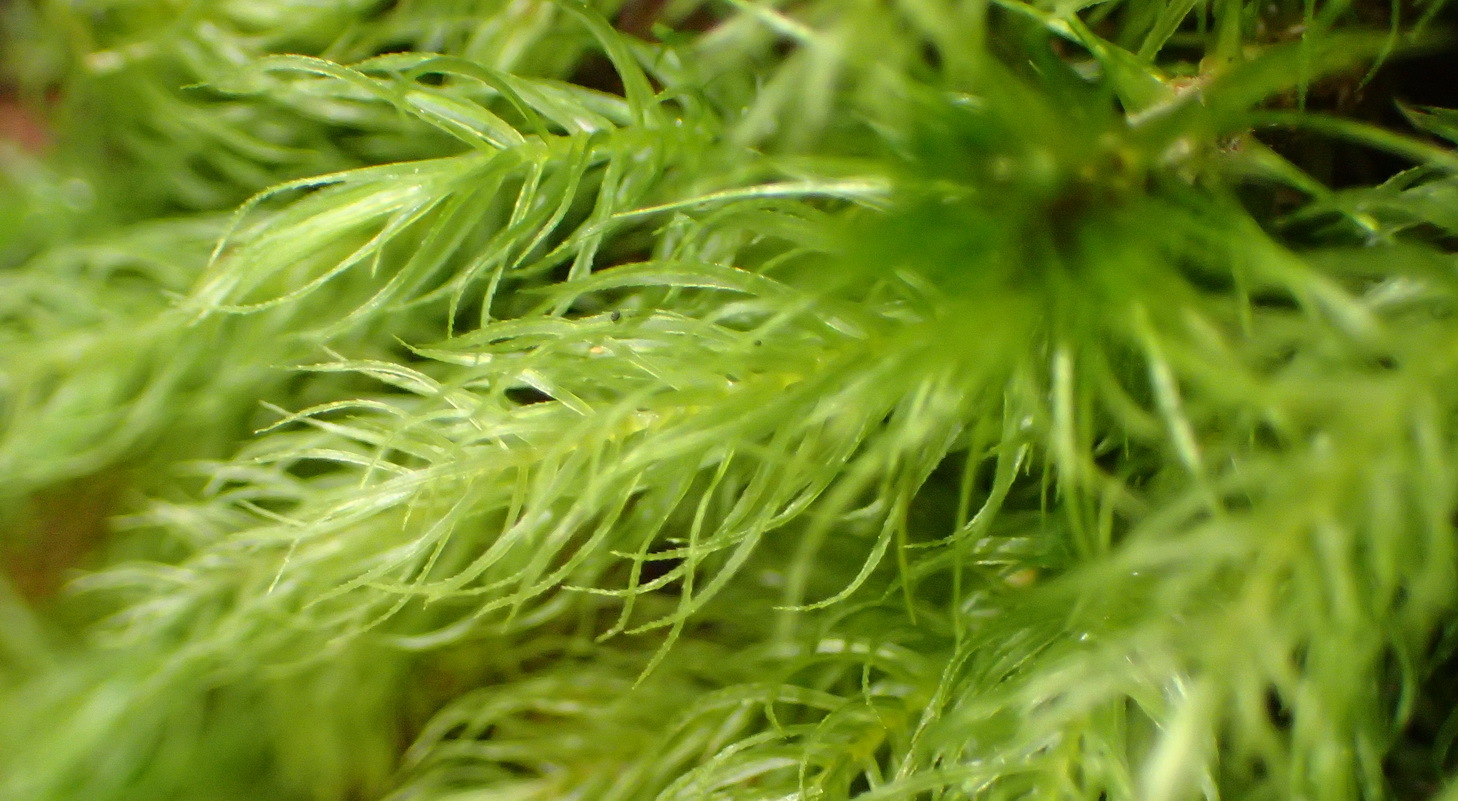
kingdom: Plantae
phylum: Bryophyta
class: Bryopsida
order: Rhizogoniales
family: Calomniaceae
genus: Pyrrhobryum
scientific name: Pyrrhobryum spiniforme
